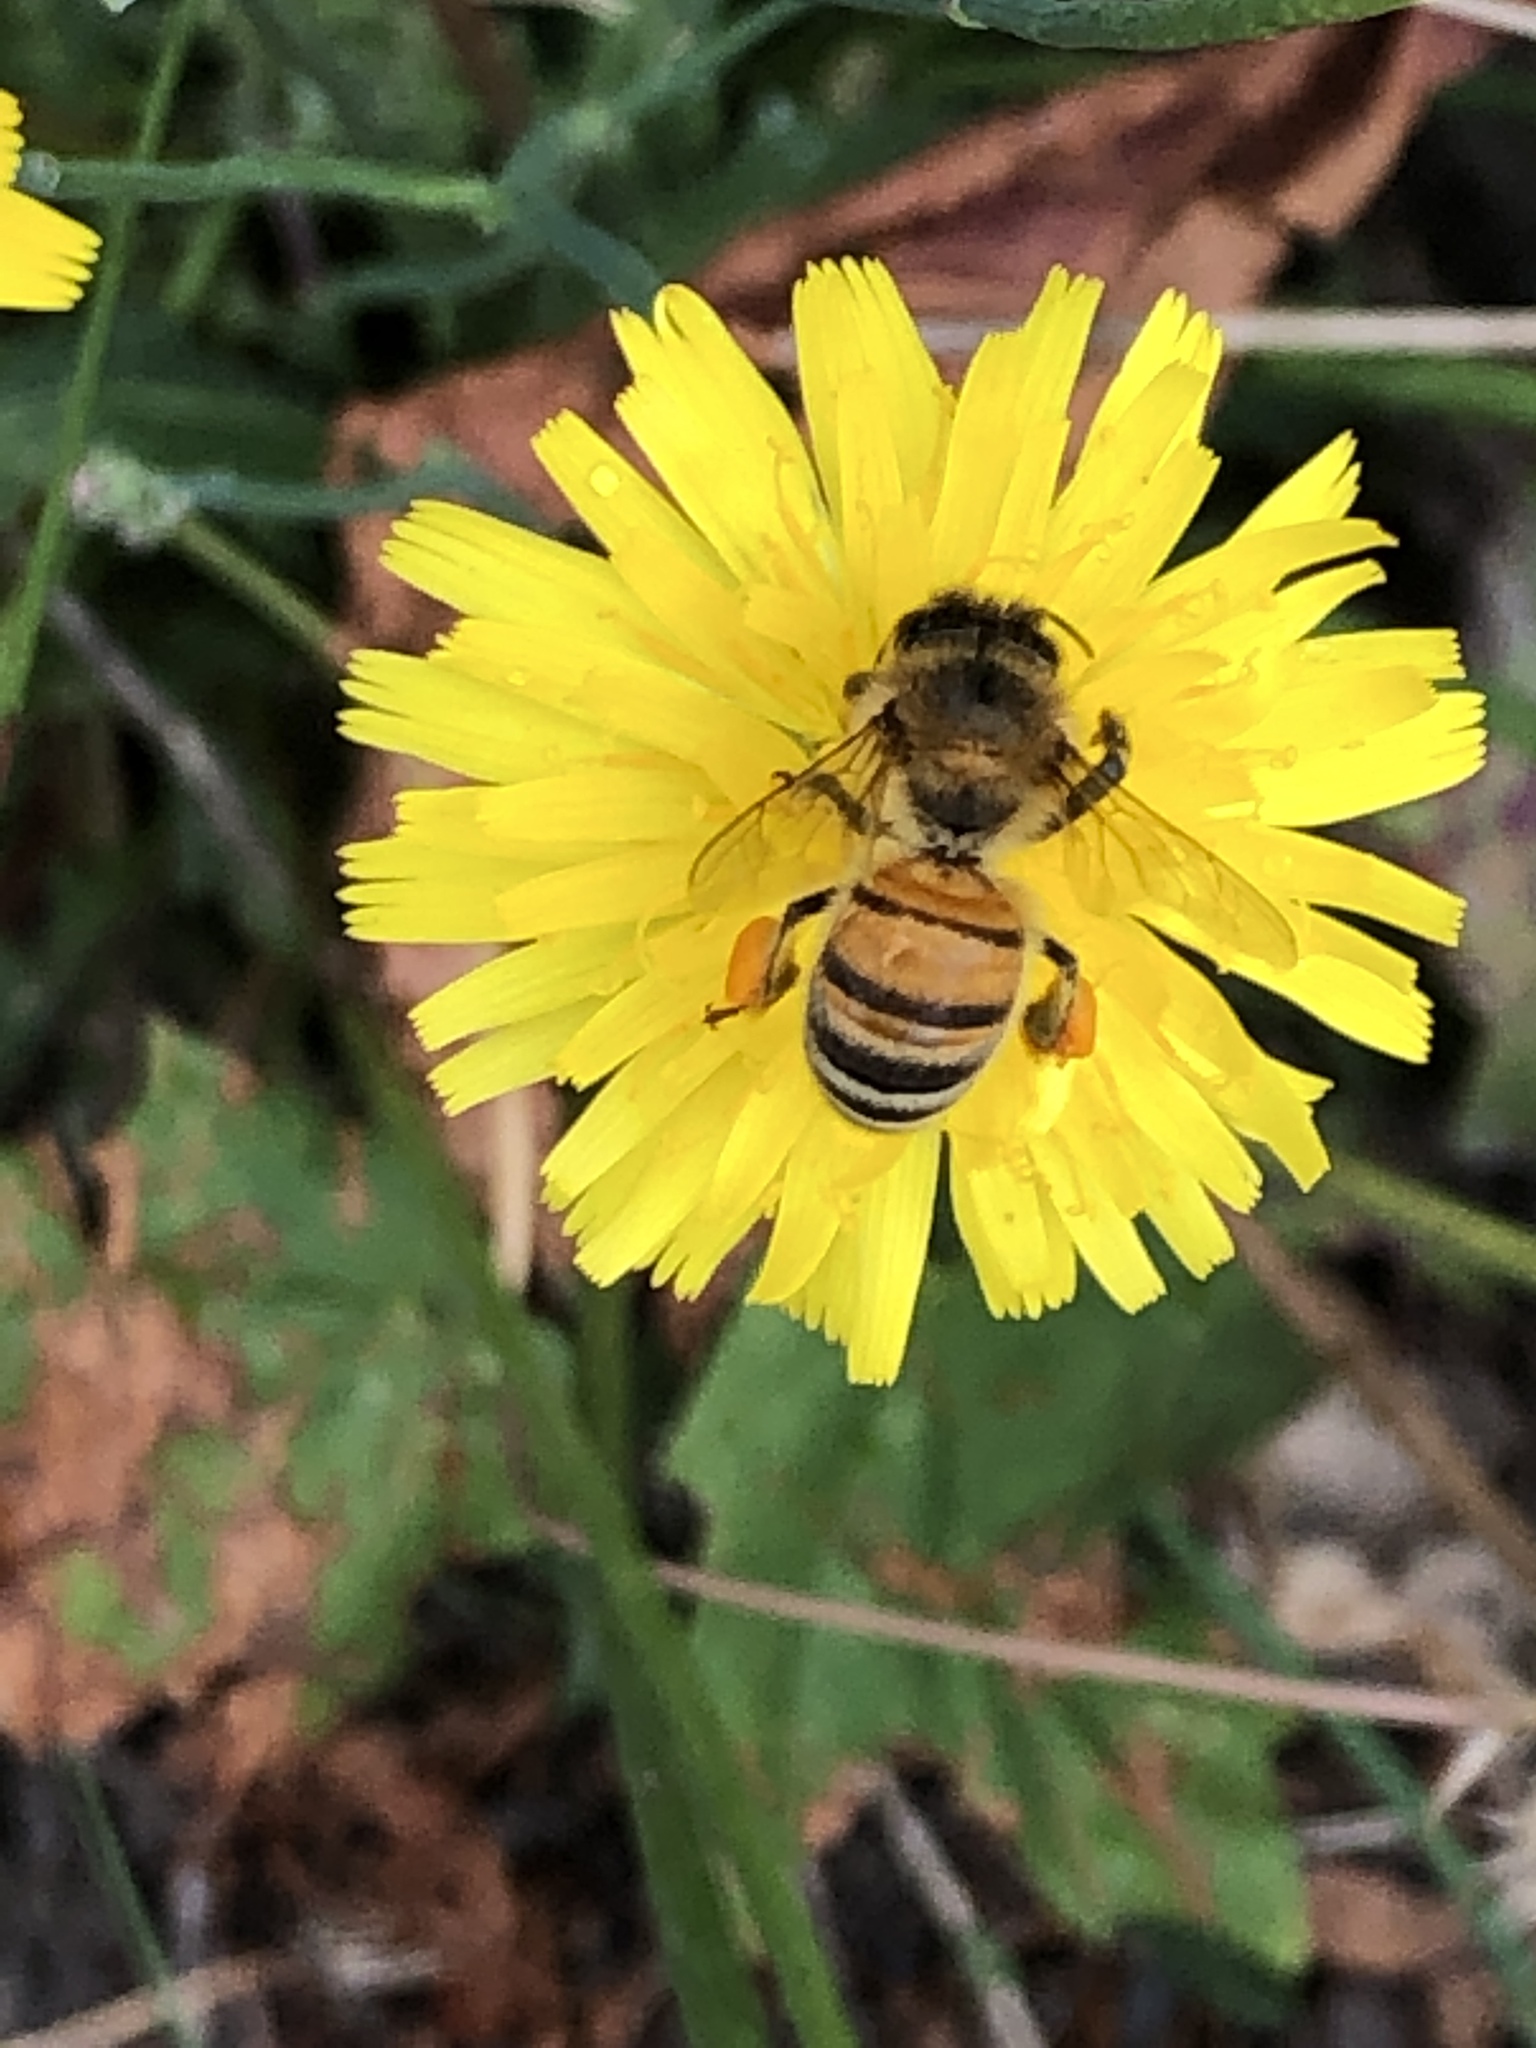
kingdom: Animalia
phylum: Arthropoda
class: Insecta
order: Hymenoptera
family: Apidae
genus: Apis
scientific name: Apis mellifera
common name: Honey bee
